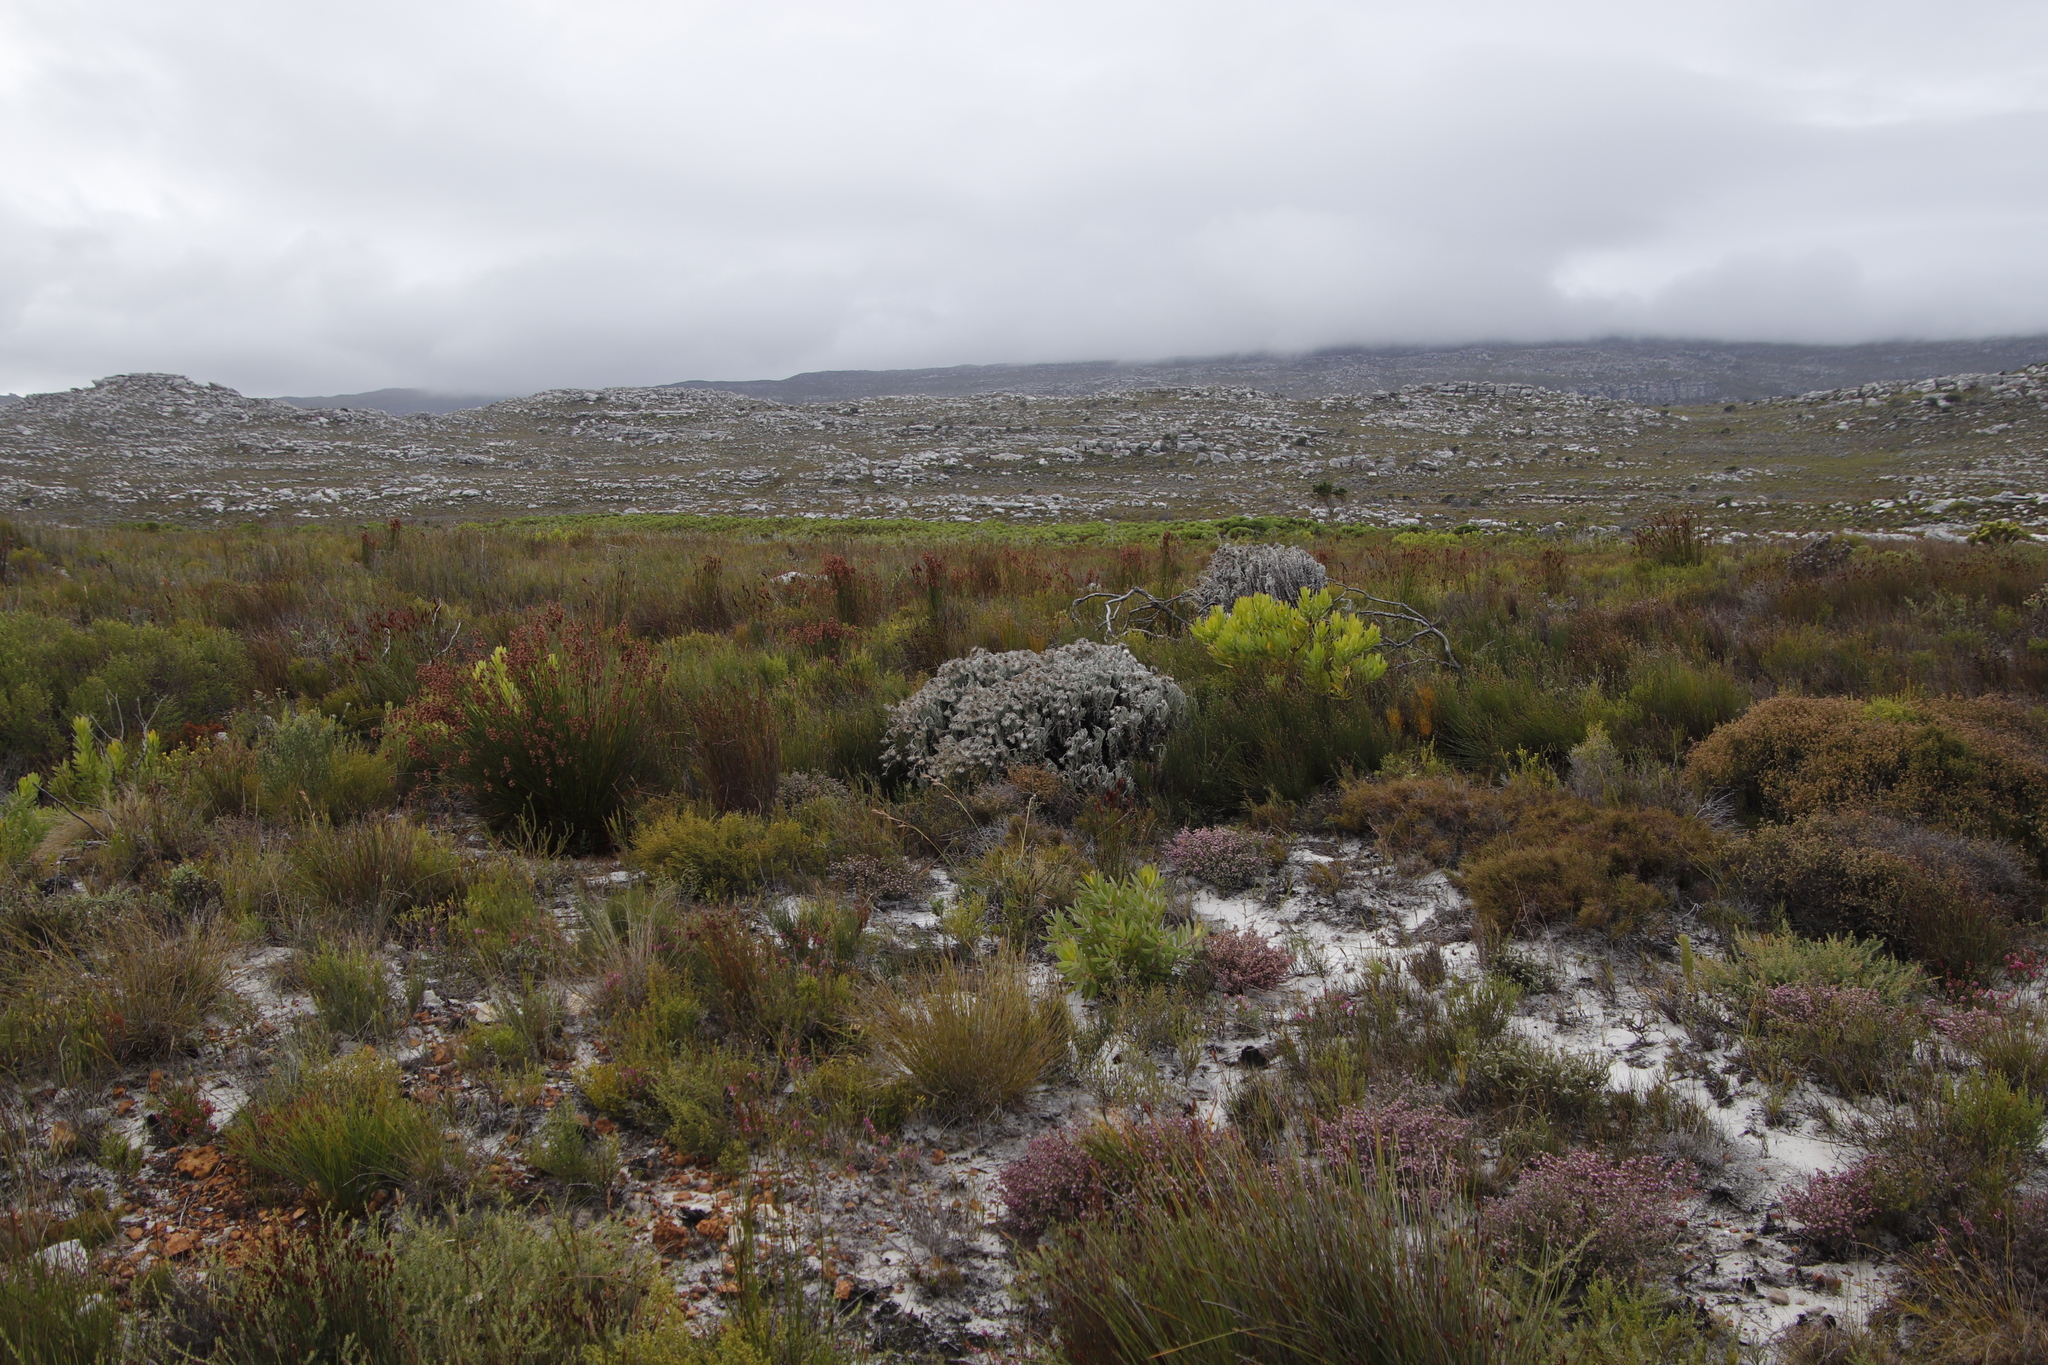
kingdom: Plantae
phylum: Tracheophyta
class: Magnoliopsida
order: Asterales
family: Asteraceae
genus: Syncarpha
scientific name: Syncarpha vestita
